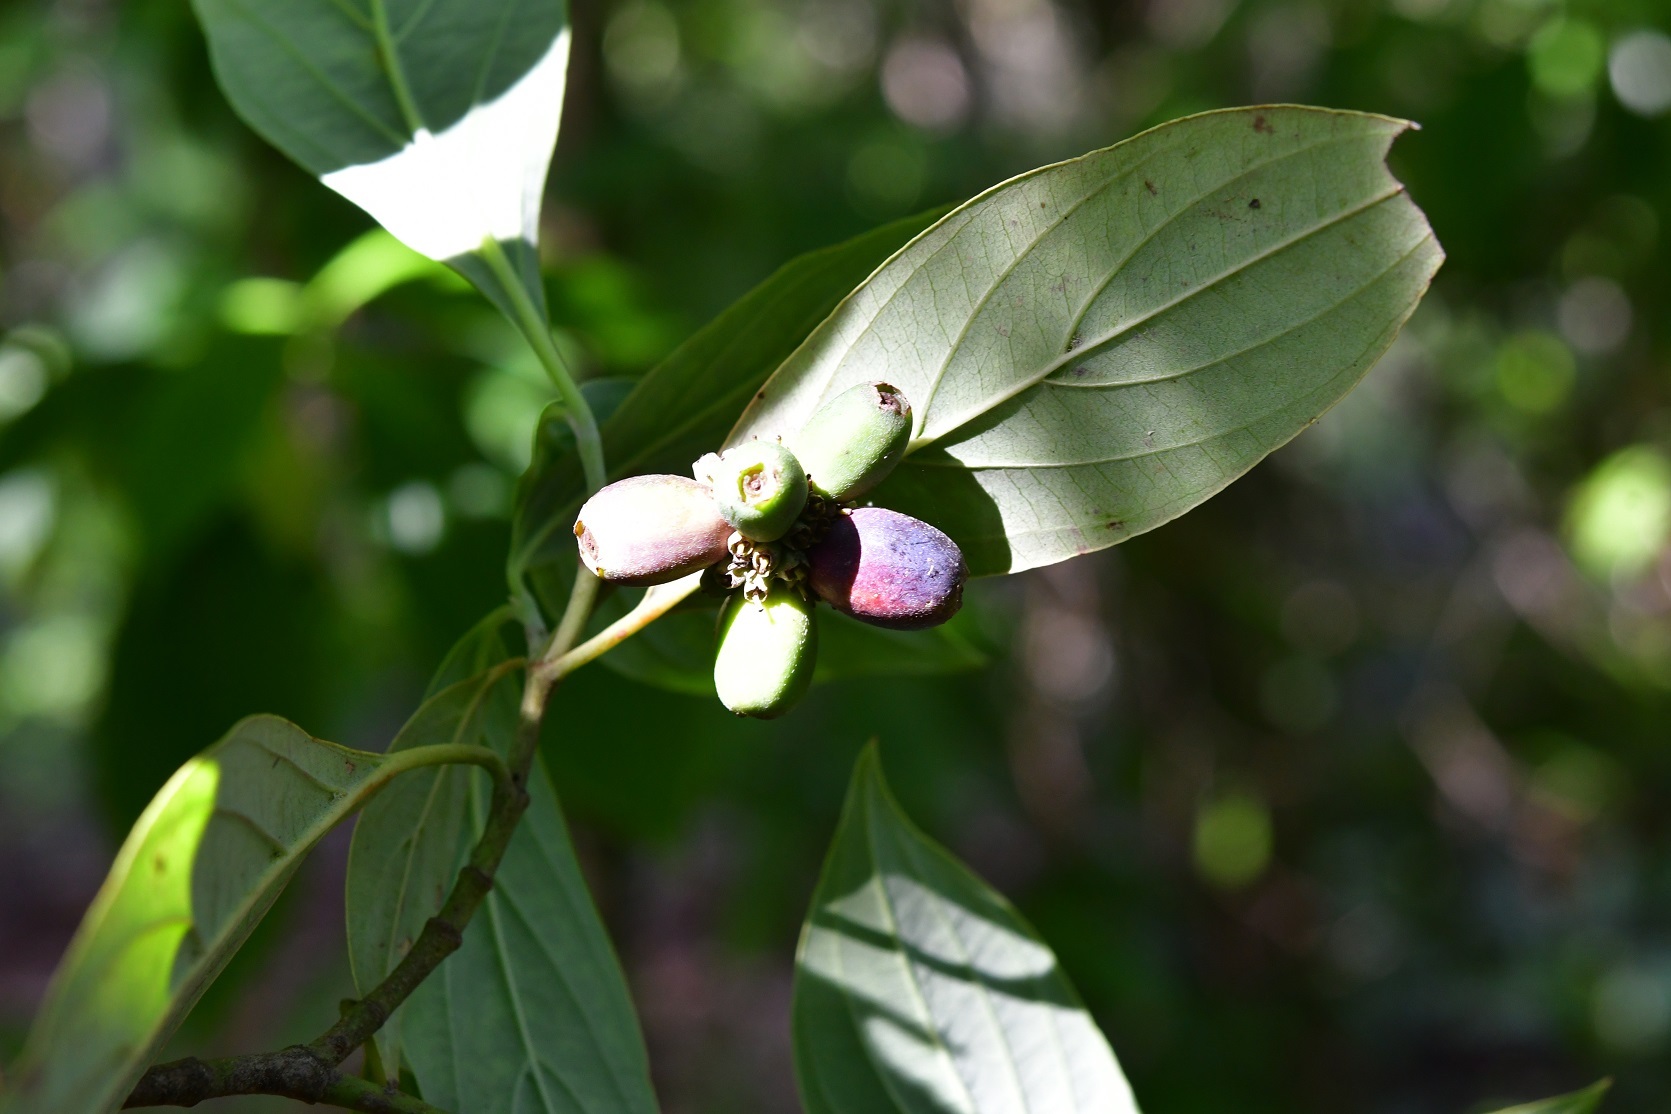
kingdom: Plantae
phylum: Tracheophyta
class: Magnoliopsida
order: Cornales
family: Cornaceae
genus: Cornus
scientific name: Cornus disciflora
